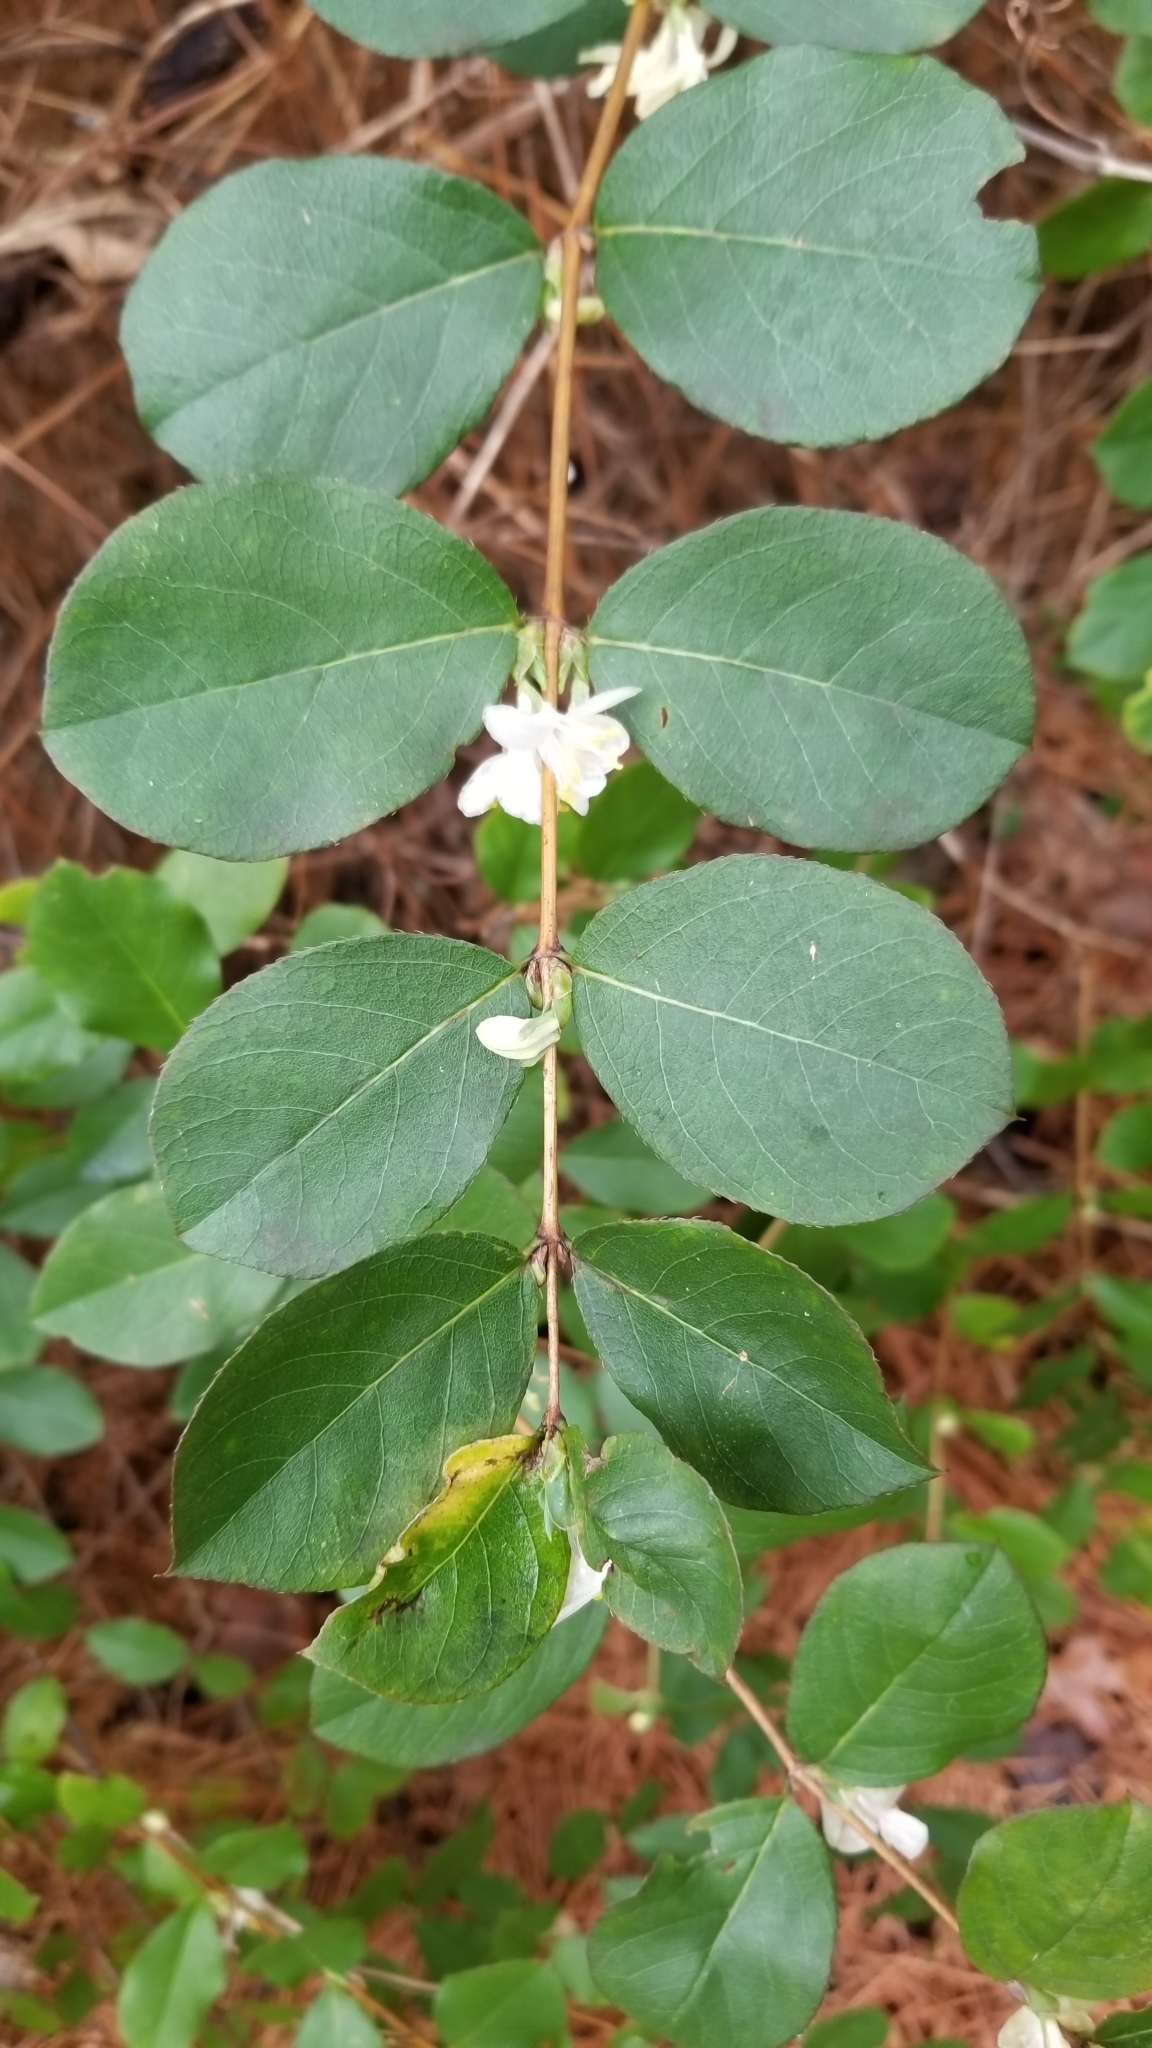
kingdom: Plantae
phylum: Tracheophyta
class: Magnoliopsida
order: Dipsacales
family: Caprifoliaceae
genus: Lonicera
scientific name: Lonicera fragrantissima
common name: Fragrant honeysuckle
